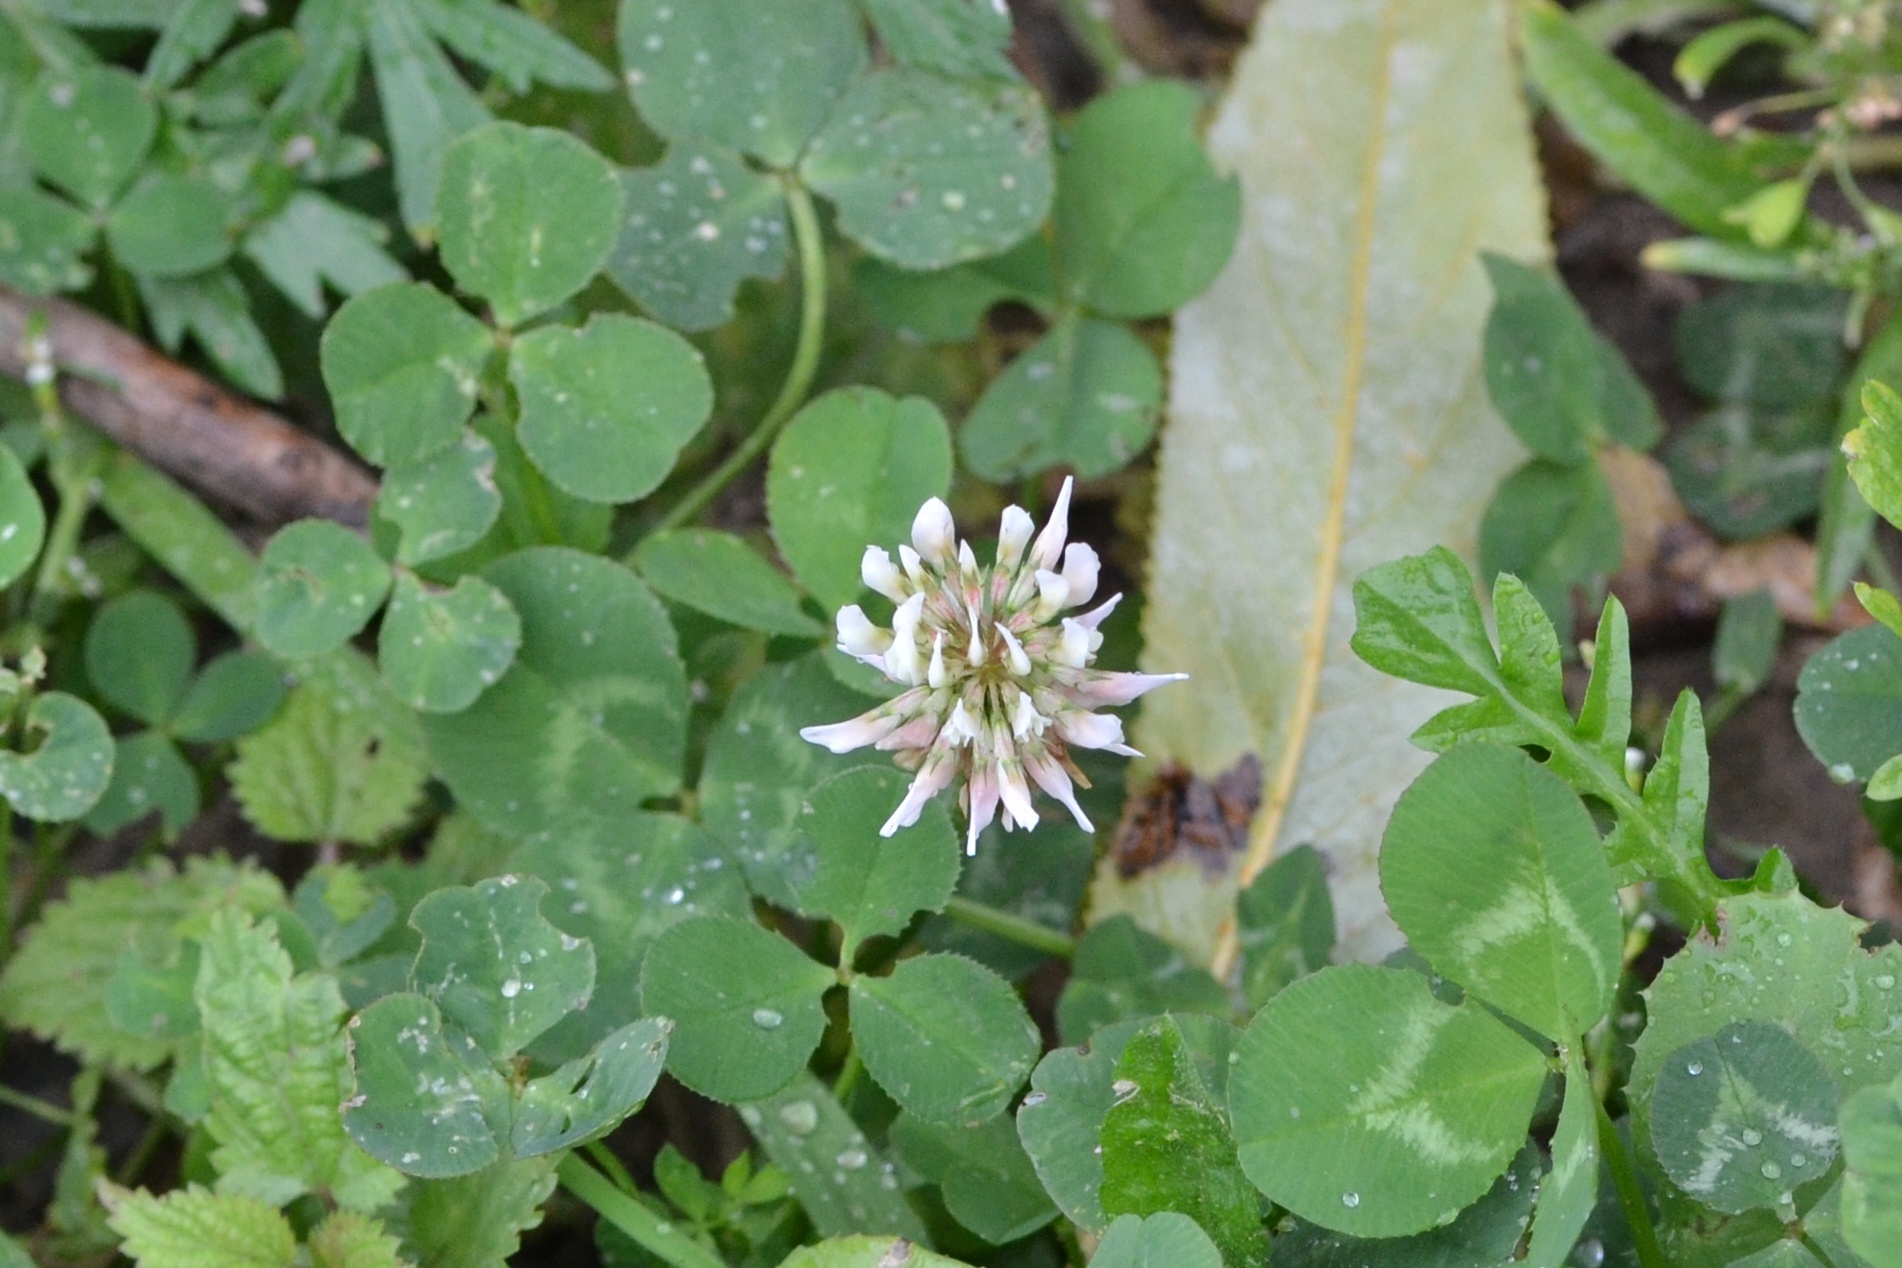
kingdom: Plantae
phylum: Tracheophyta
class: Magnoliopsida
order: Fabales
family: Fabaceae
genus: Trifolium
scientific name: Trifolium repens
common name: White clover
